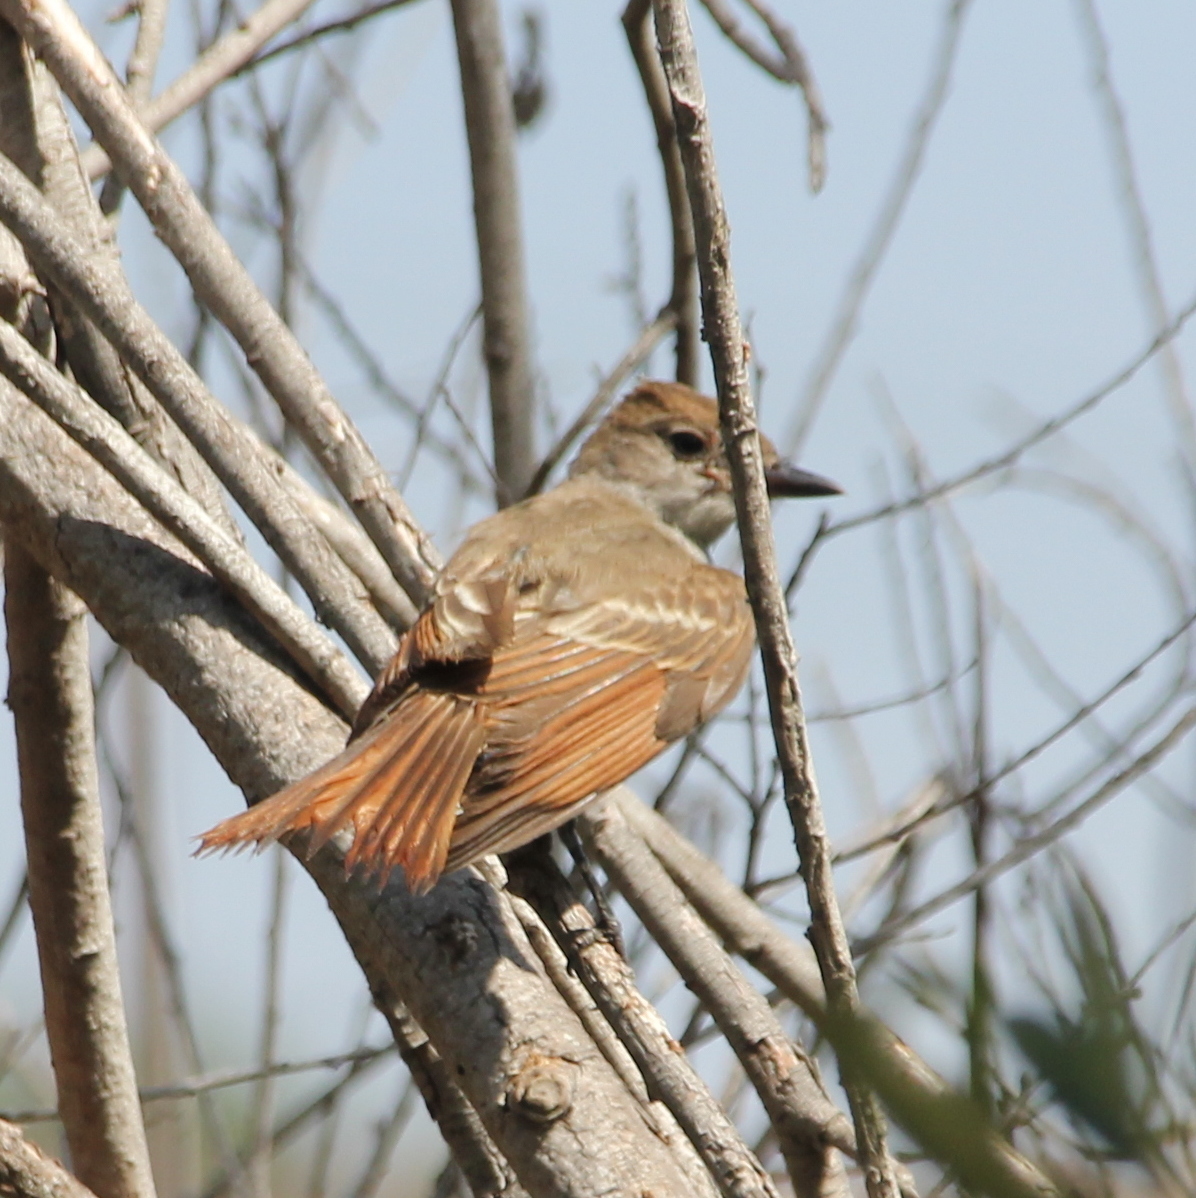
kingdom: Animalia
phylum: Chordata
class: Aves
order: Passeriformes
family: Tyrannidae
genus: Myiarchus
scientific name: Myiarchus cinerascens
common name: Ash-throated flycatcher
